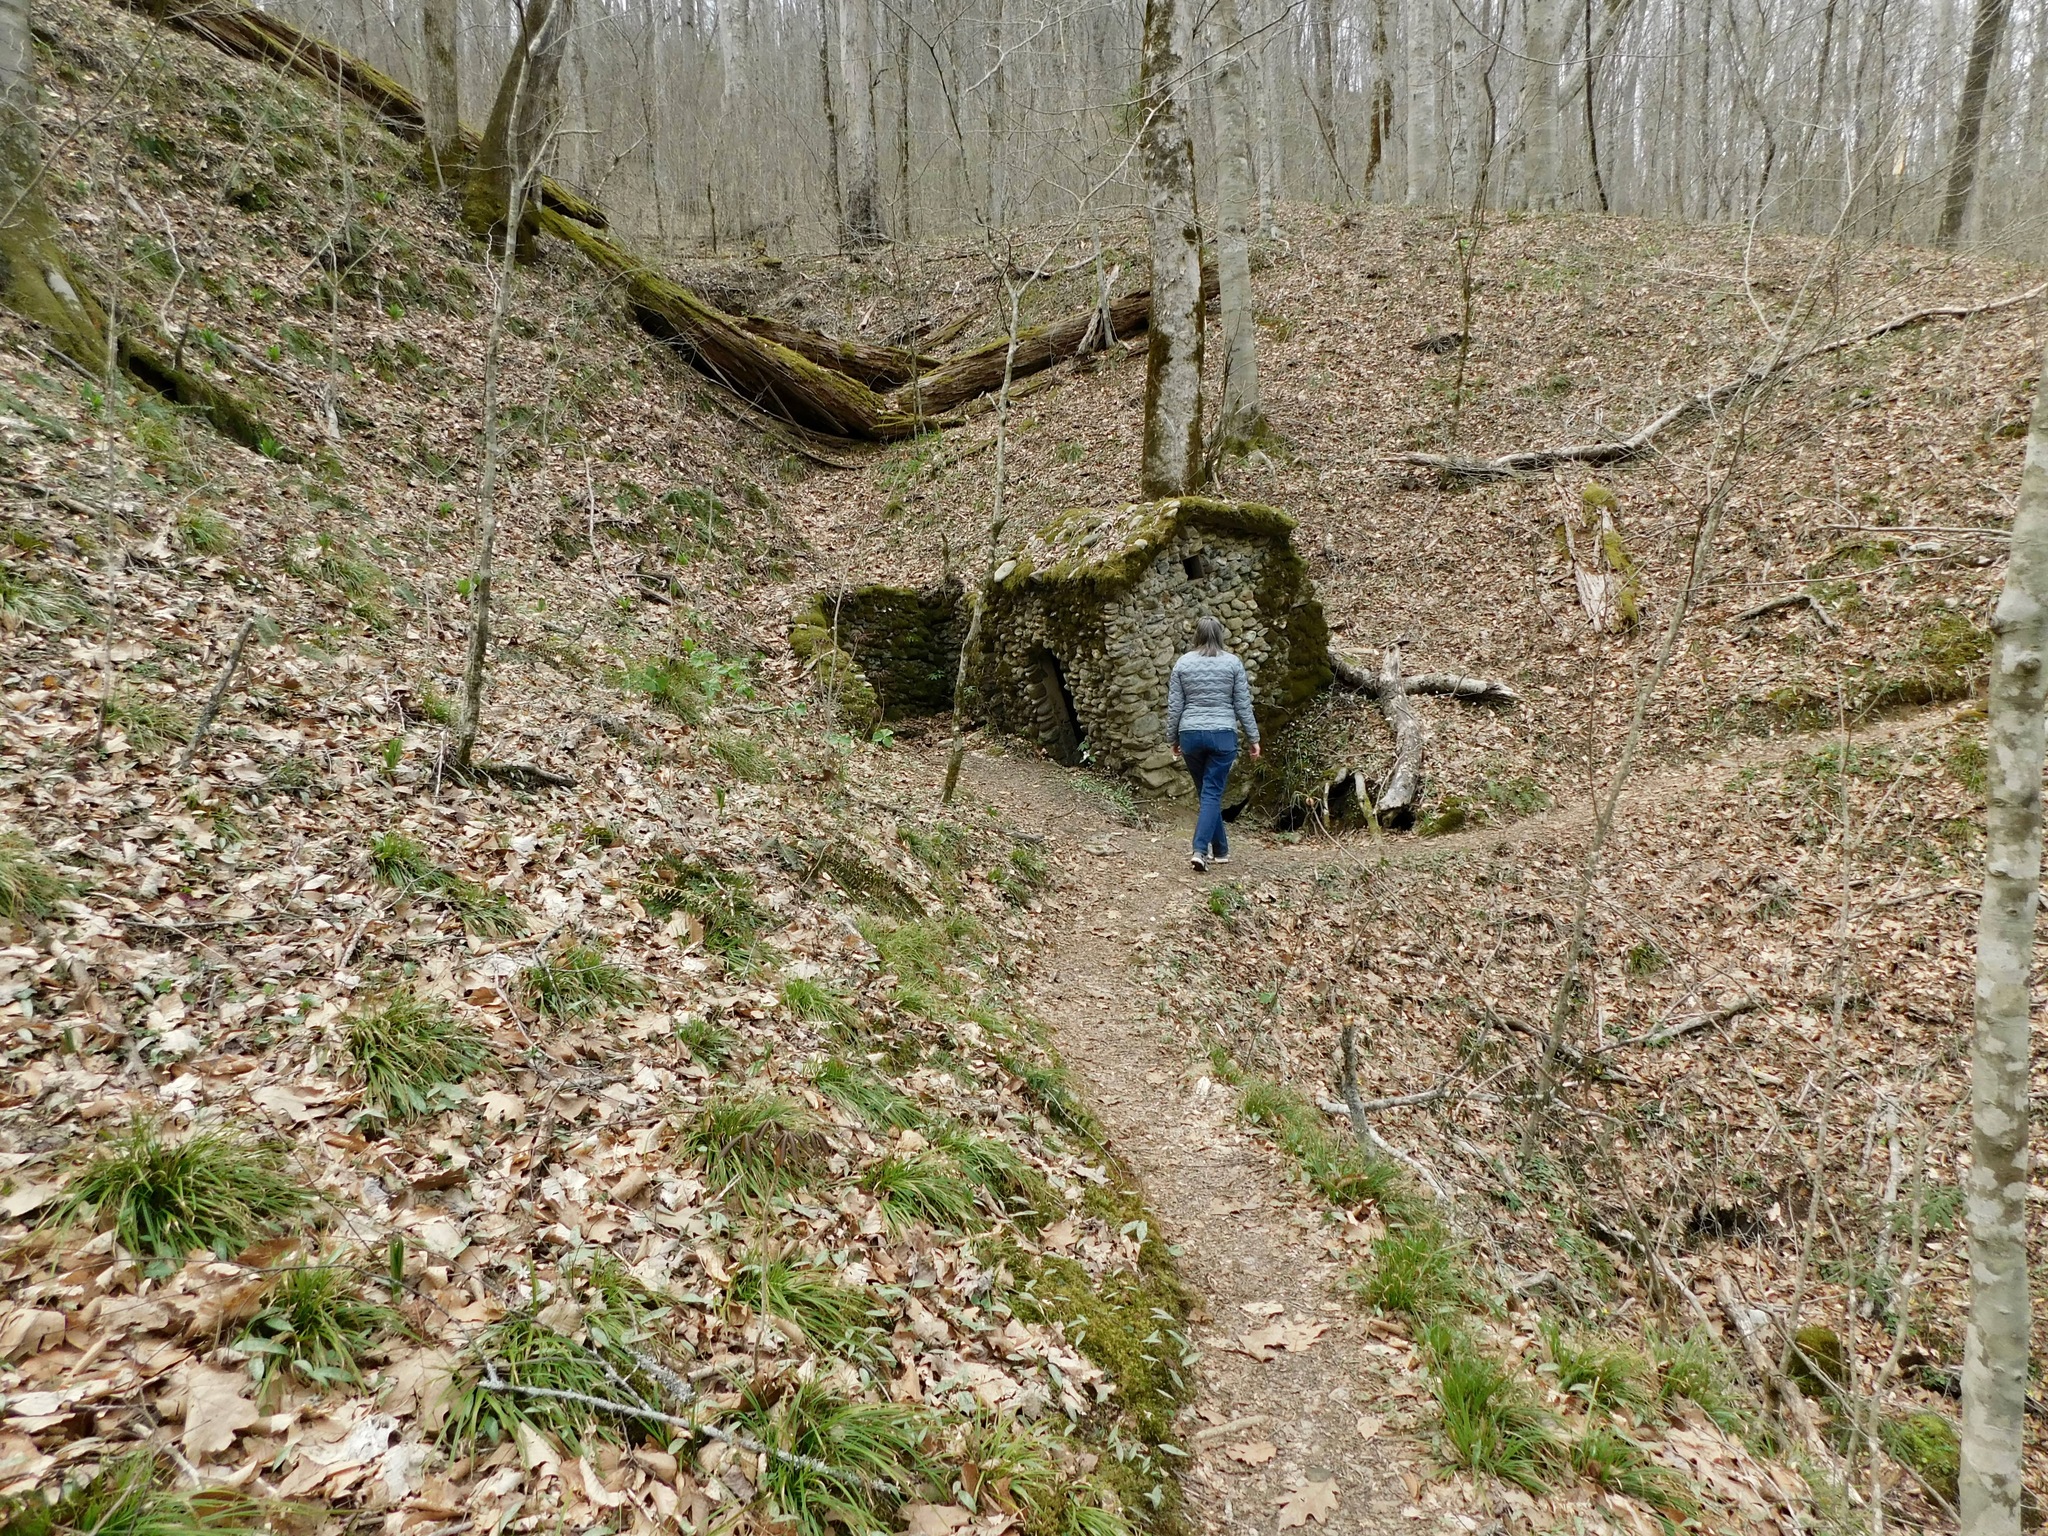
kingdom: Plantae
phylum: Tracheophyta
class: Liliopsida
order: Liliales
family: Melanthiaceae
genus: Trillium
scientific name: Trillium grandiflorum
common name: Great white trillium
